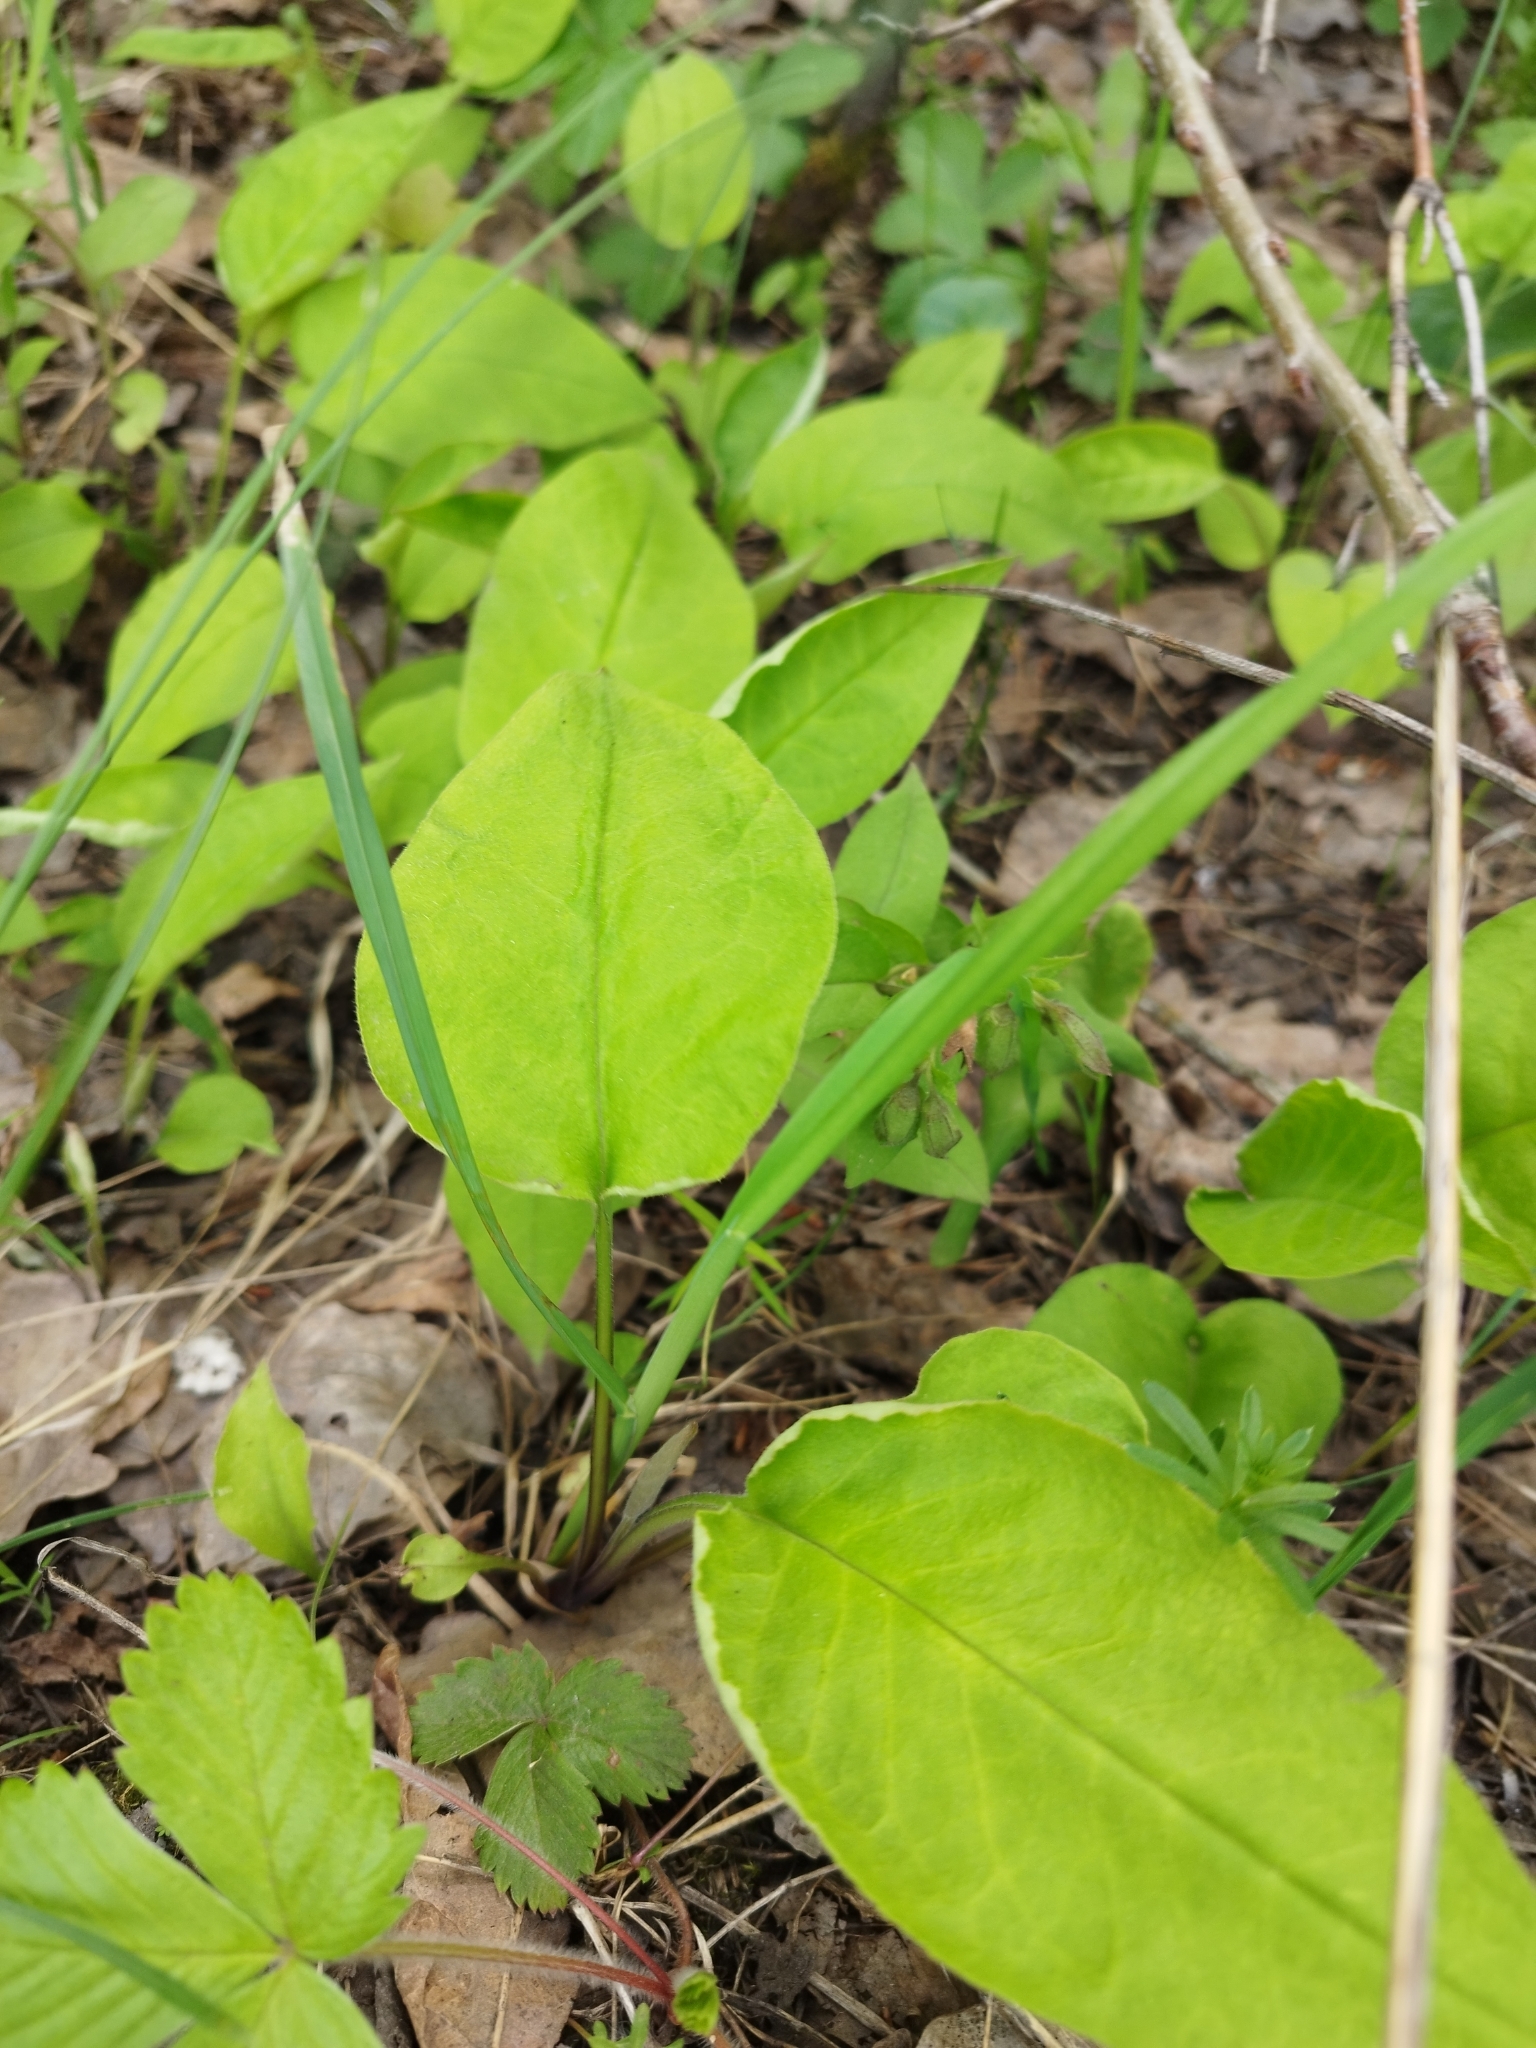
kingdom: Plantae
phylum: Tracheophyta
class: Magnoliopsida
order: Boraginales
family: Boraginaceae
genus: Pulmonaria
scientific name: Pulmonaria obscura
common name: Suffolk lungwort
